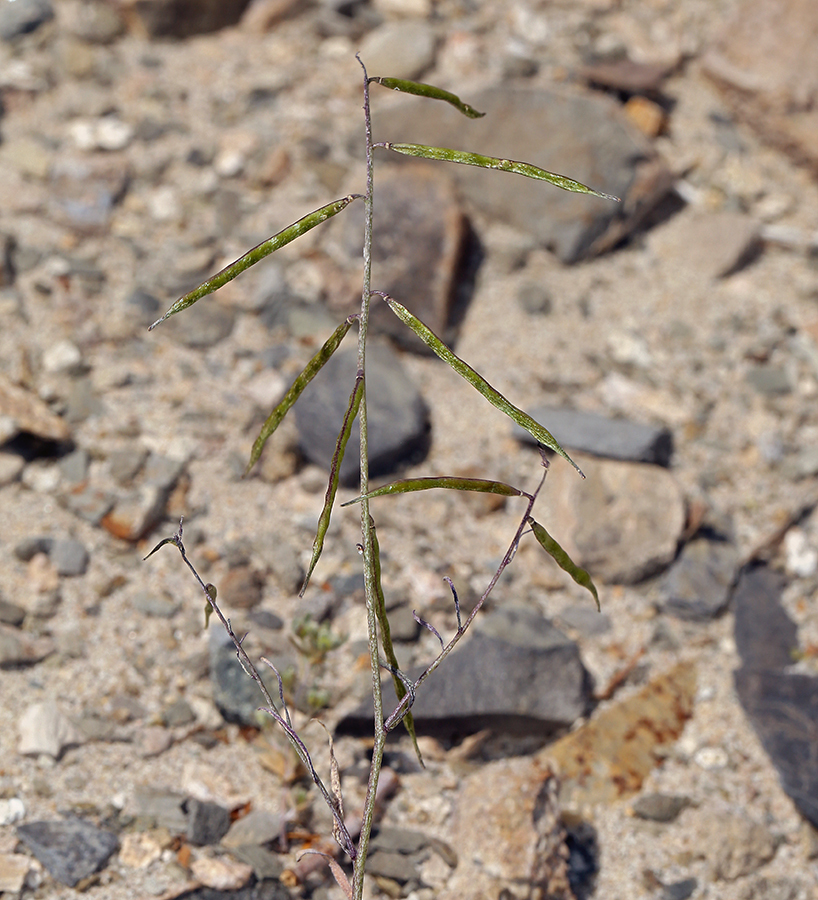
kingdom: Plantae
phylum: Tracheophyta
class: Magnoliopsida
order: Brassicales
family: Brassicaceae
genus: Streptanthus
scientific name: Streptanthus longirostris
